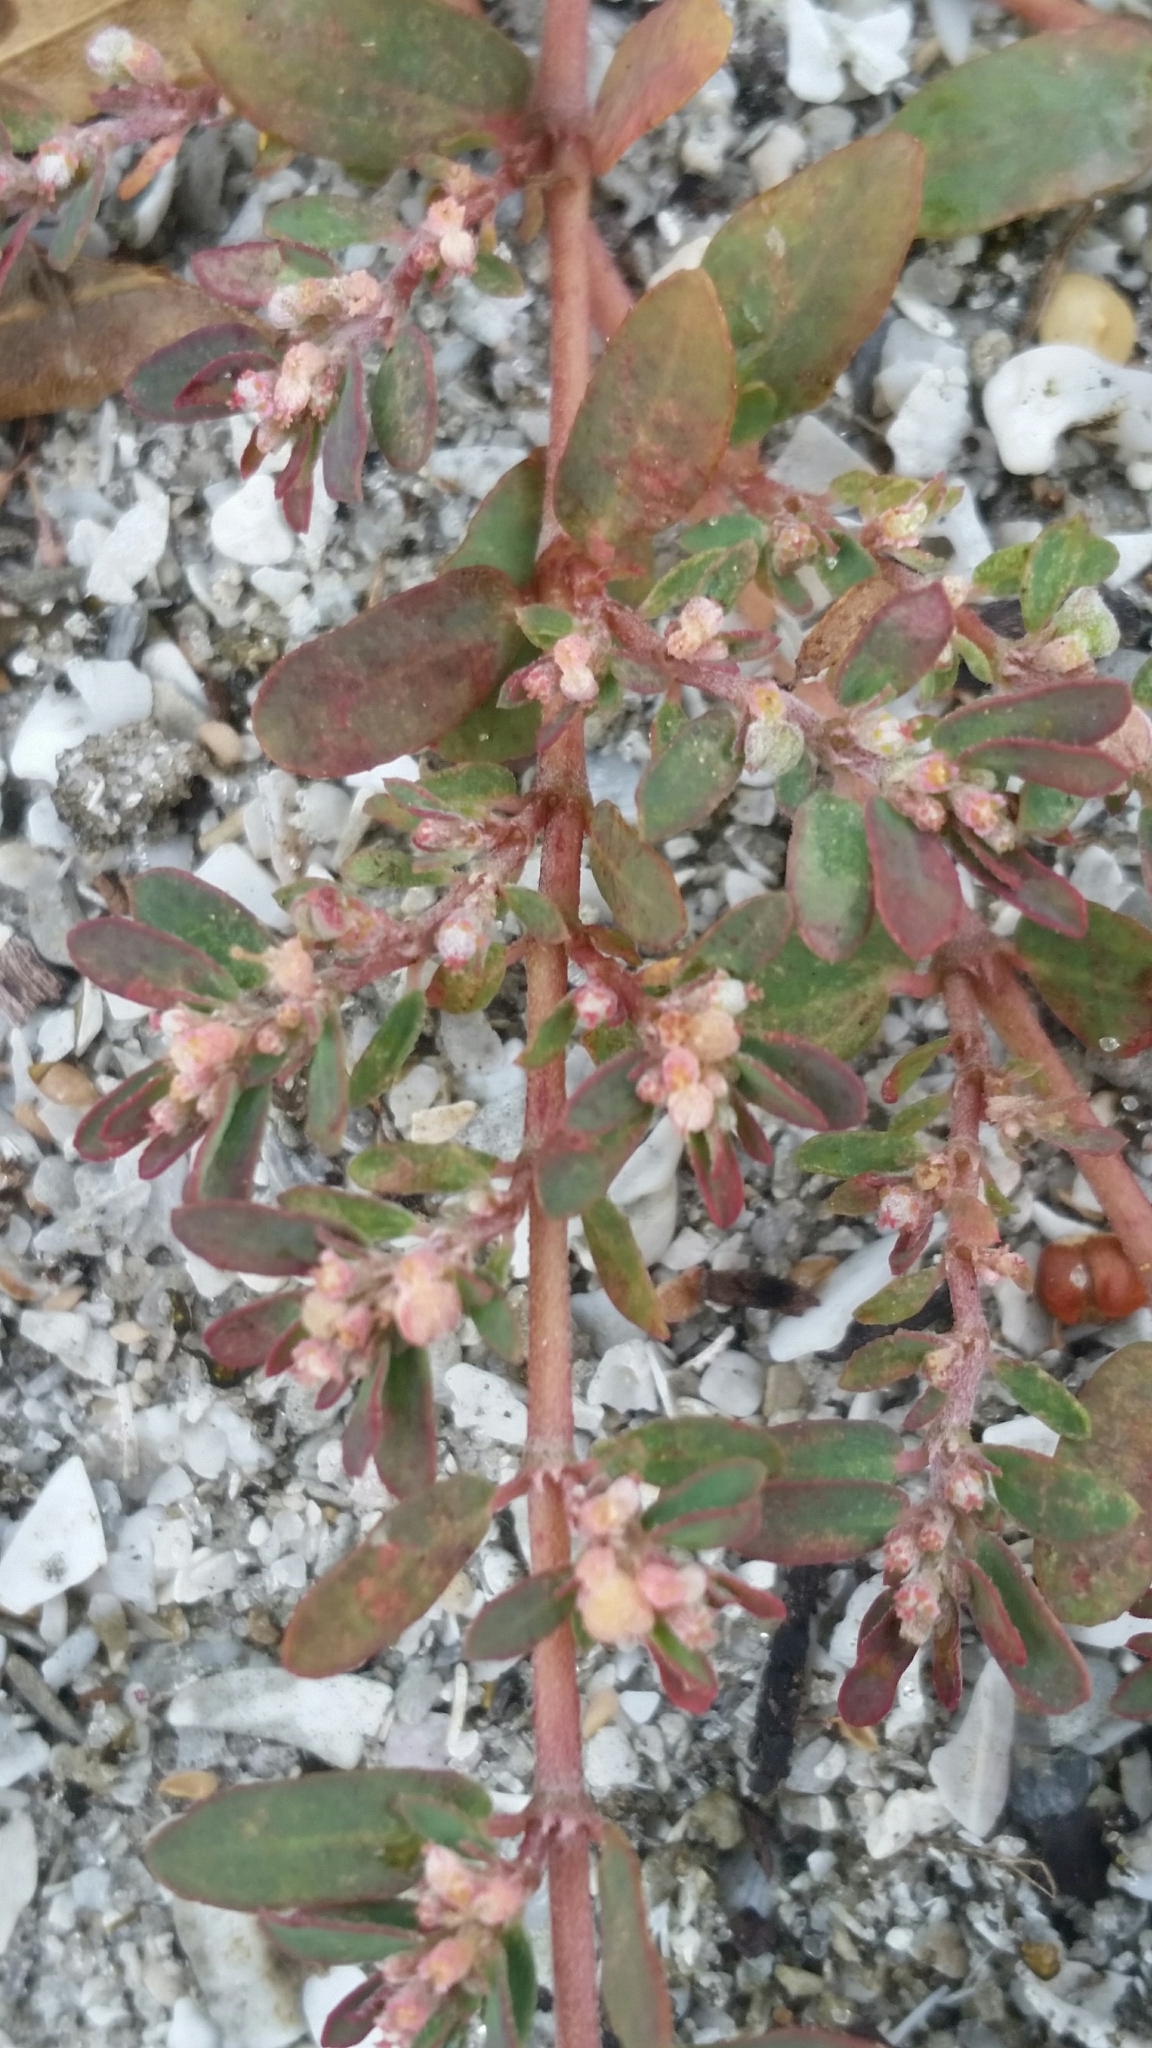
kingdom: Plantae
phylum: Tracheophyta
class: Magnoliopsida
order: Malpighiales
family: Euphorbiaceae
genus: Euphorbia
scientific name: Euphorbia maculata
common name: Spotted spurge
